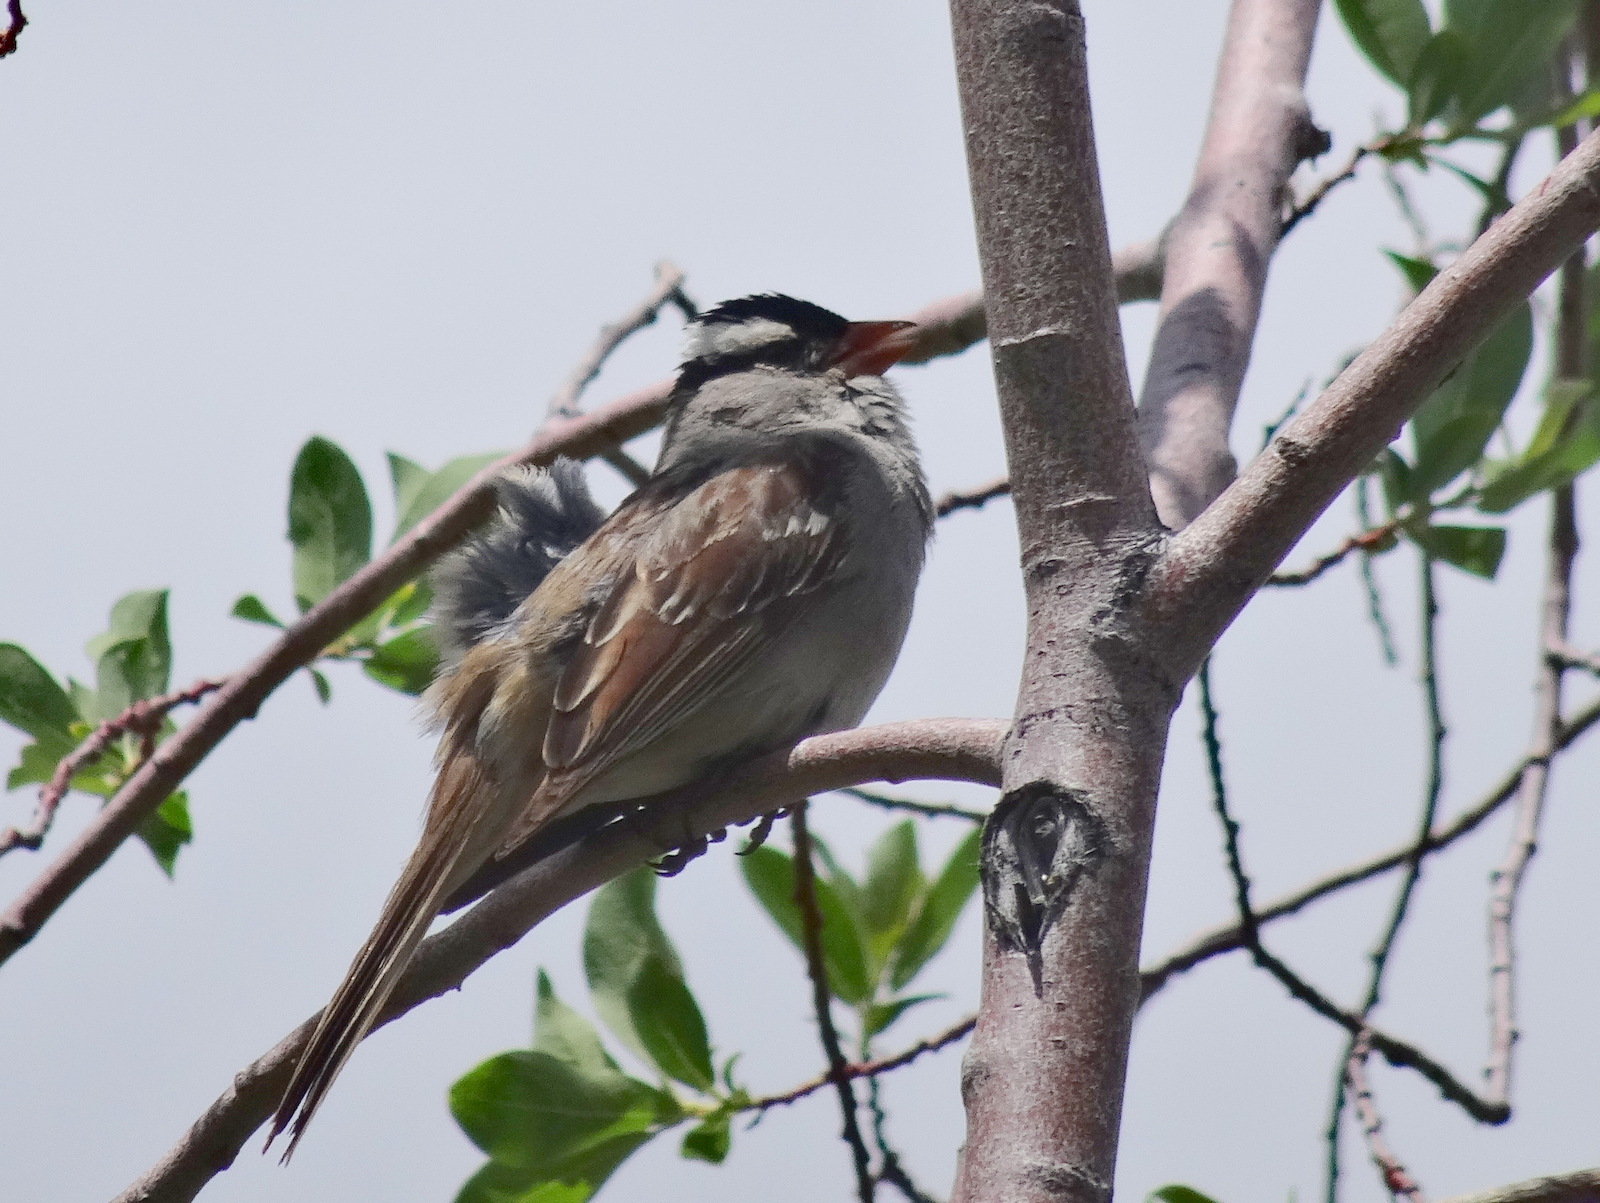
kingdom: Animalia
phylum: Chordata
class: Aves
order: Passeriformes
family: Passerellidae
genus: Zonotrichia
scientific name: Zonotrichia leucophrys
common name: White-crowned sparrow
